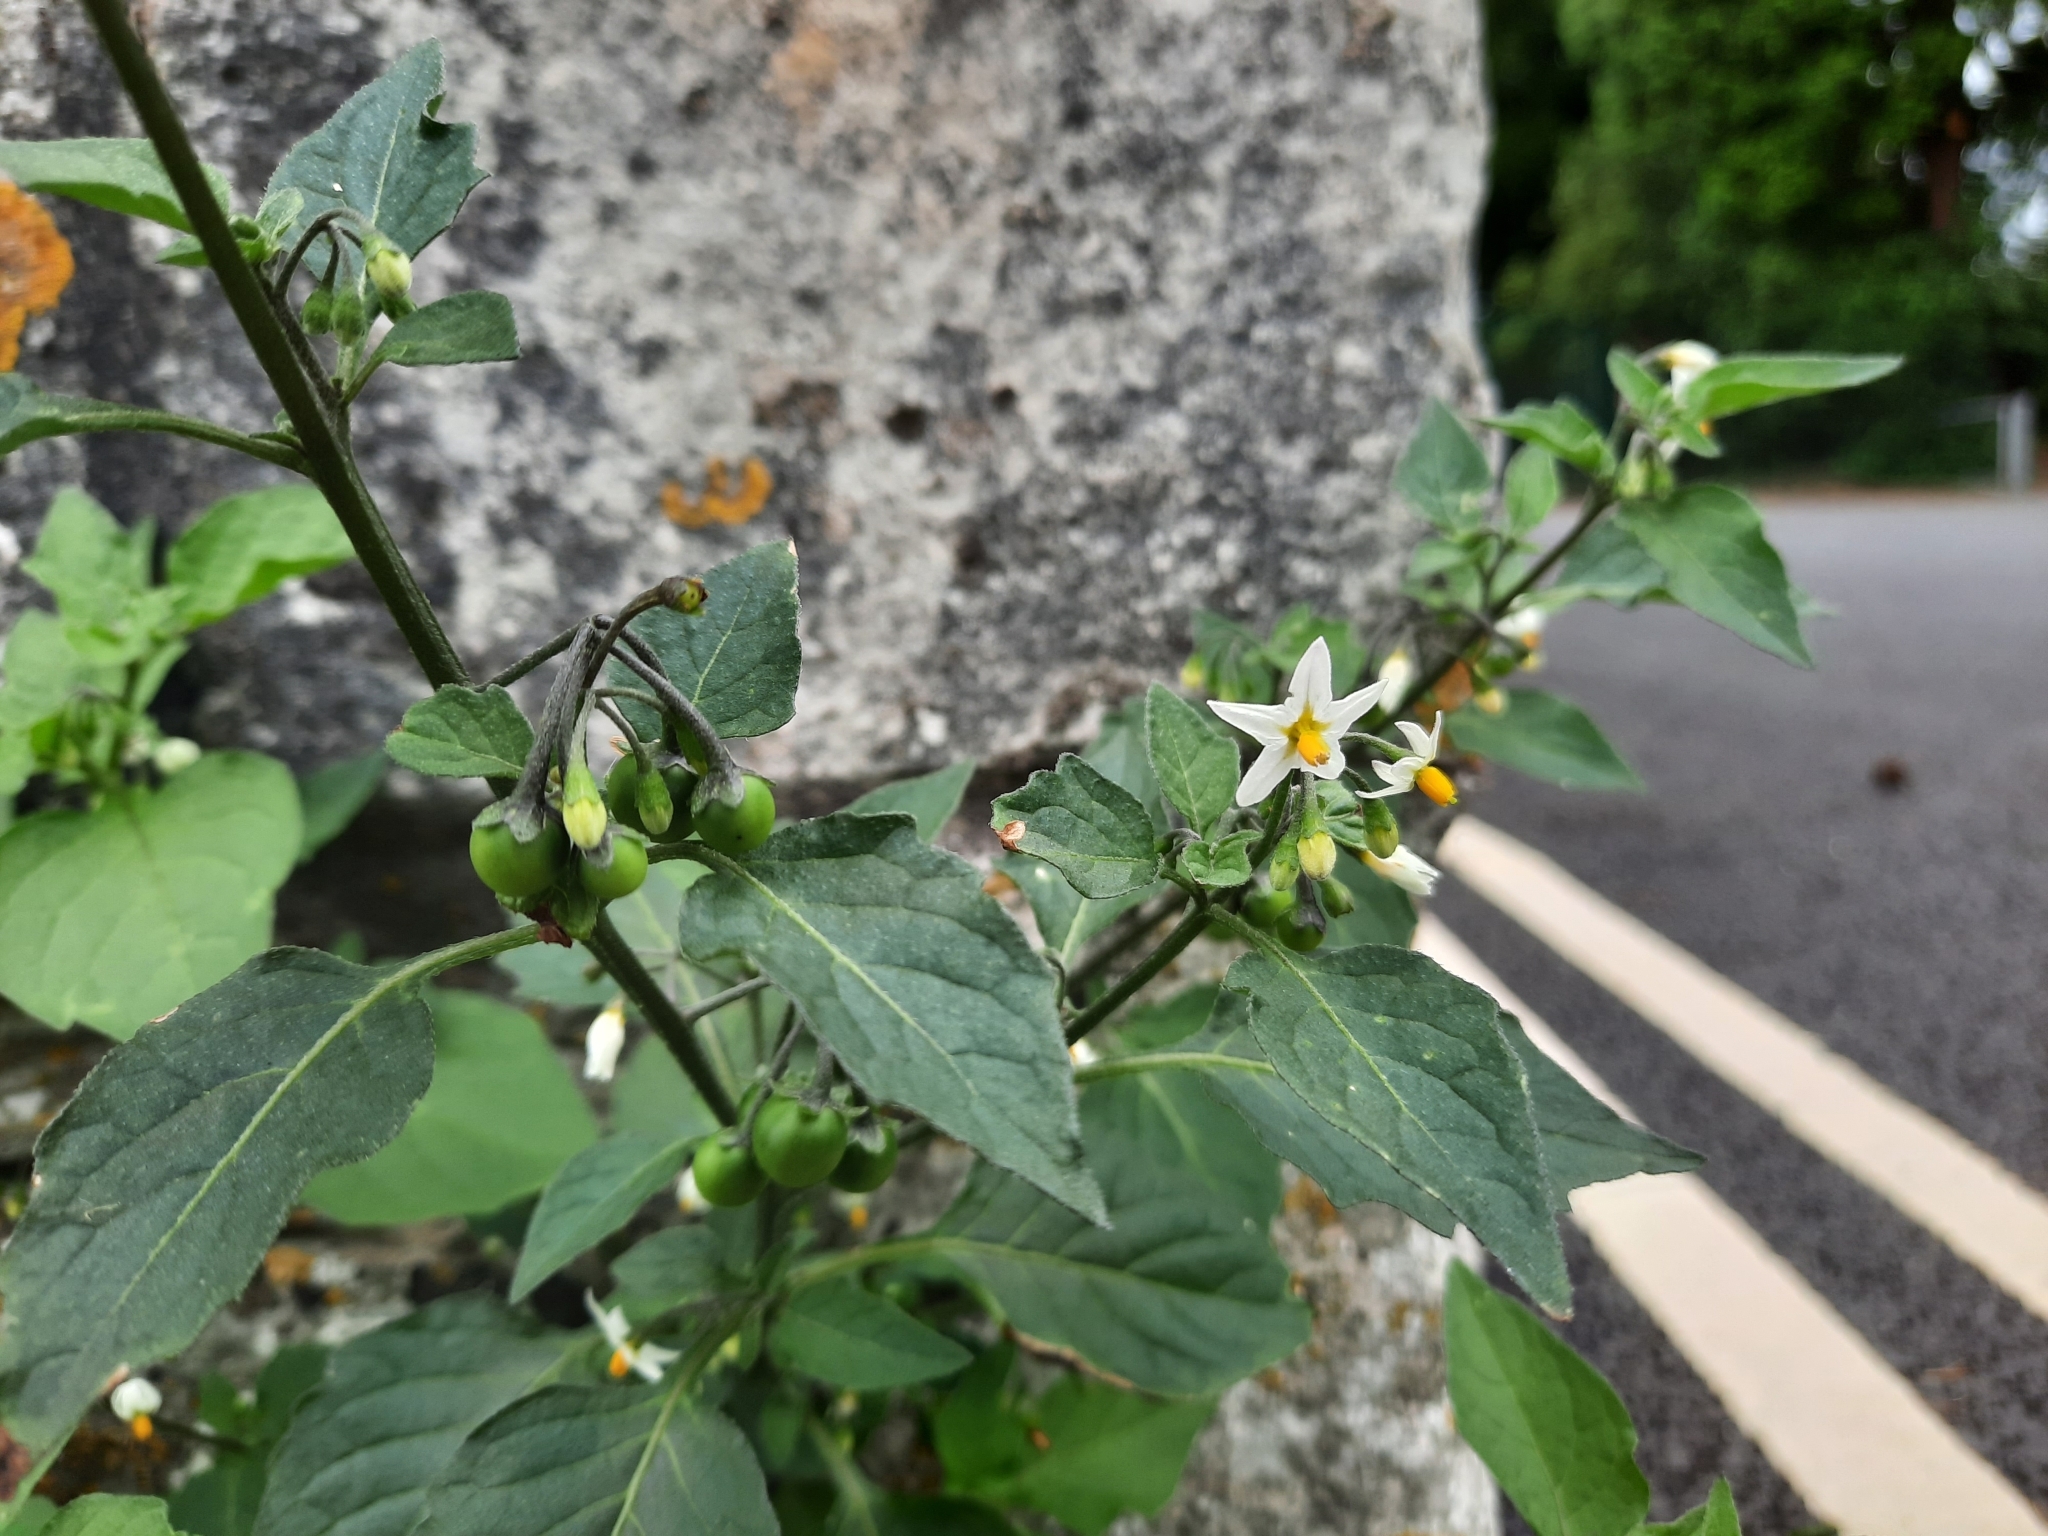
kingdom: Plantae
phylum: Tracheophyta
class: Magnoliopsida
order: Solanales
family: Solanaceae
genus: Solanum
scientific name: Solanum nigrum
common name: Black nightshade
